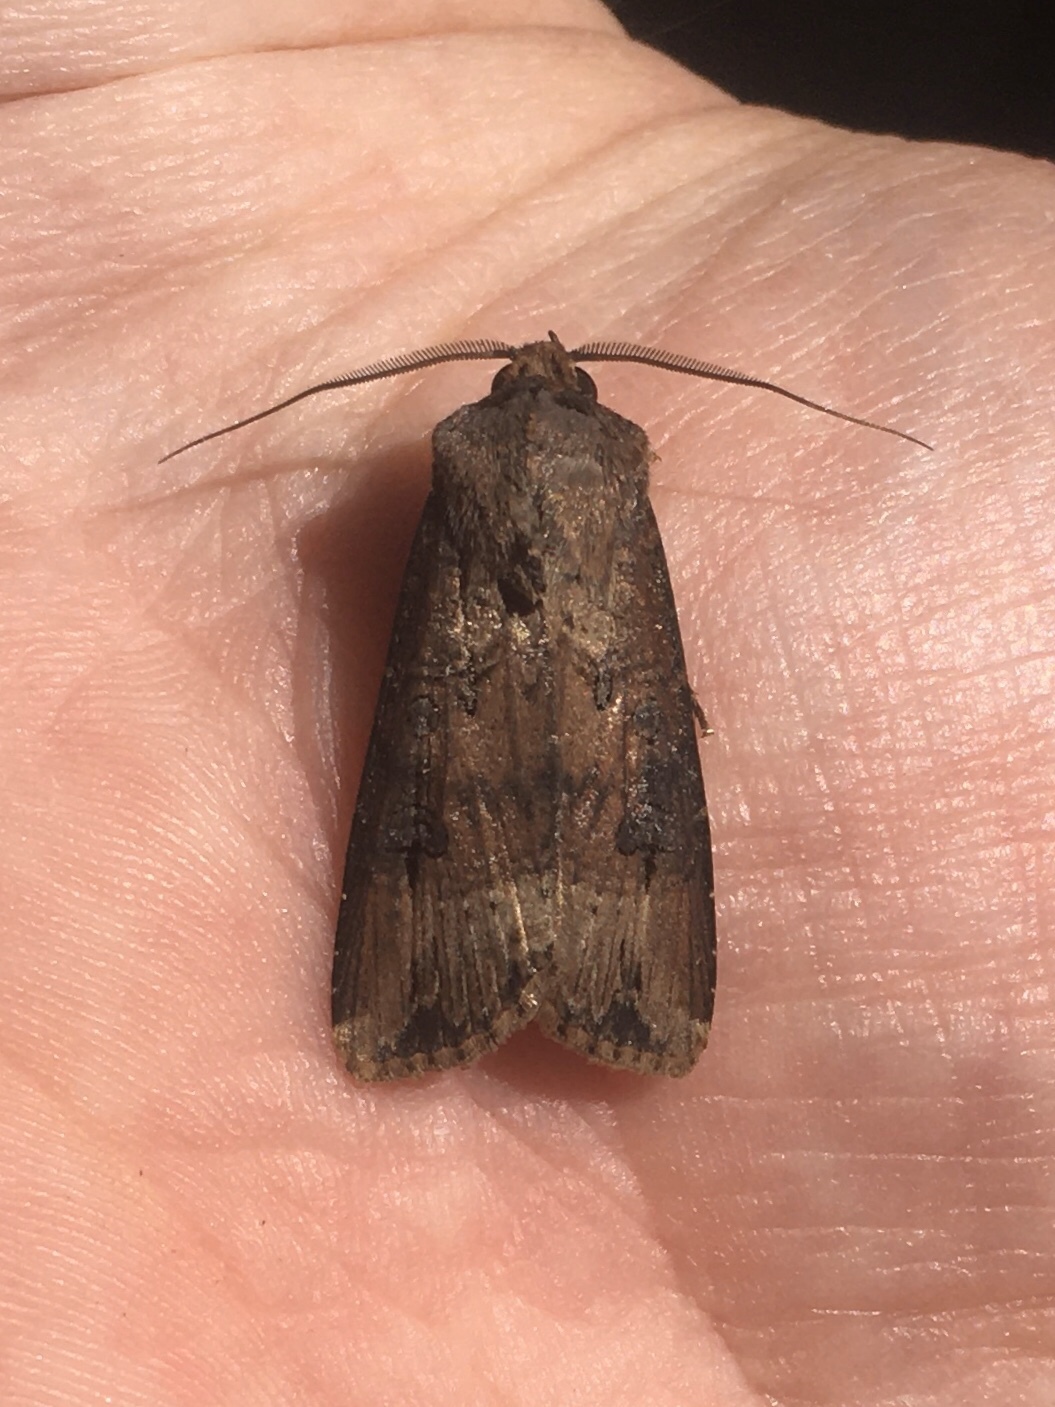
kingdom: Animalia
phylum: Arthropoda
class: Insecta
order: Lepidoptera
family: Noctuidae
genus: Agrotis
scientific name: Agrotis ipsilon
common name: Dark sword-grass
